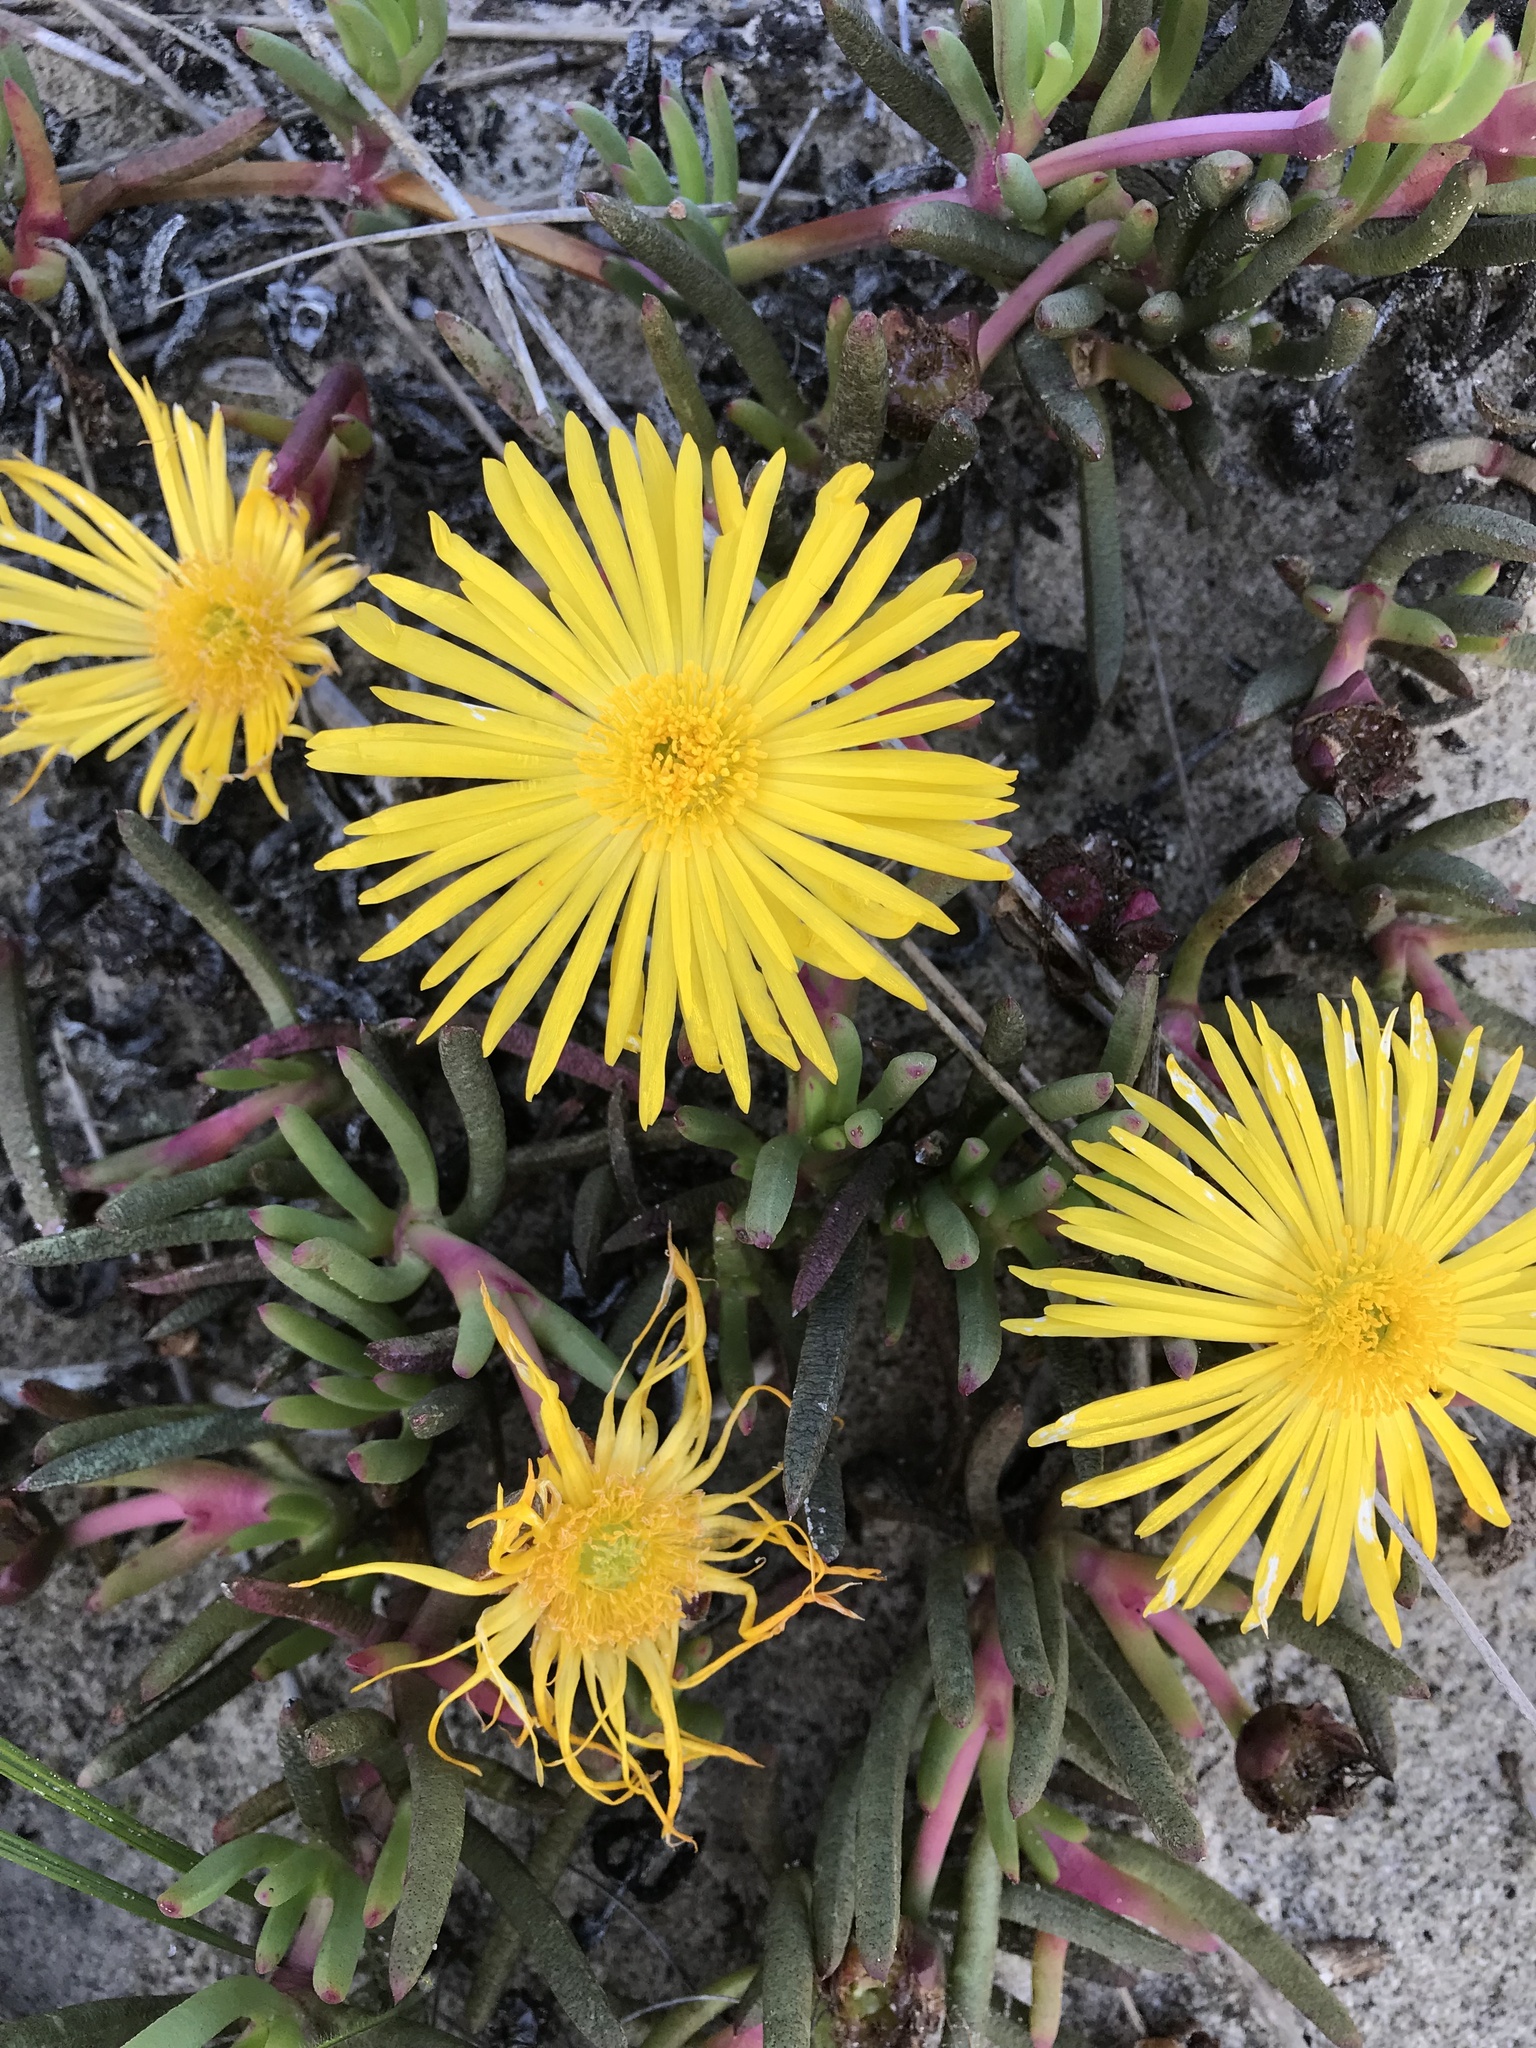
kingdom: Plantae
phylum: Tracheophyta
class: Magnoliopsida
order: Caryophyllales
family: Aizoaceae
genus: Jordaaniella
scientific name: Jordaaniella dubia
